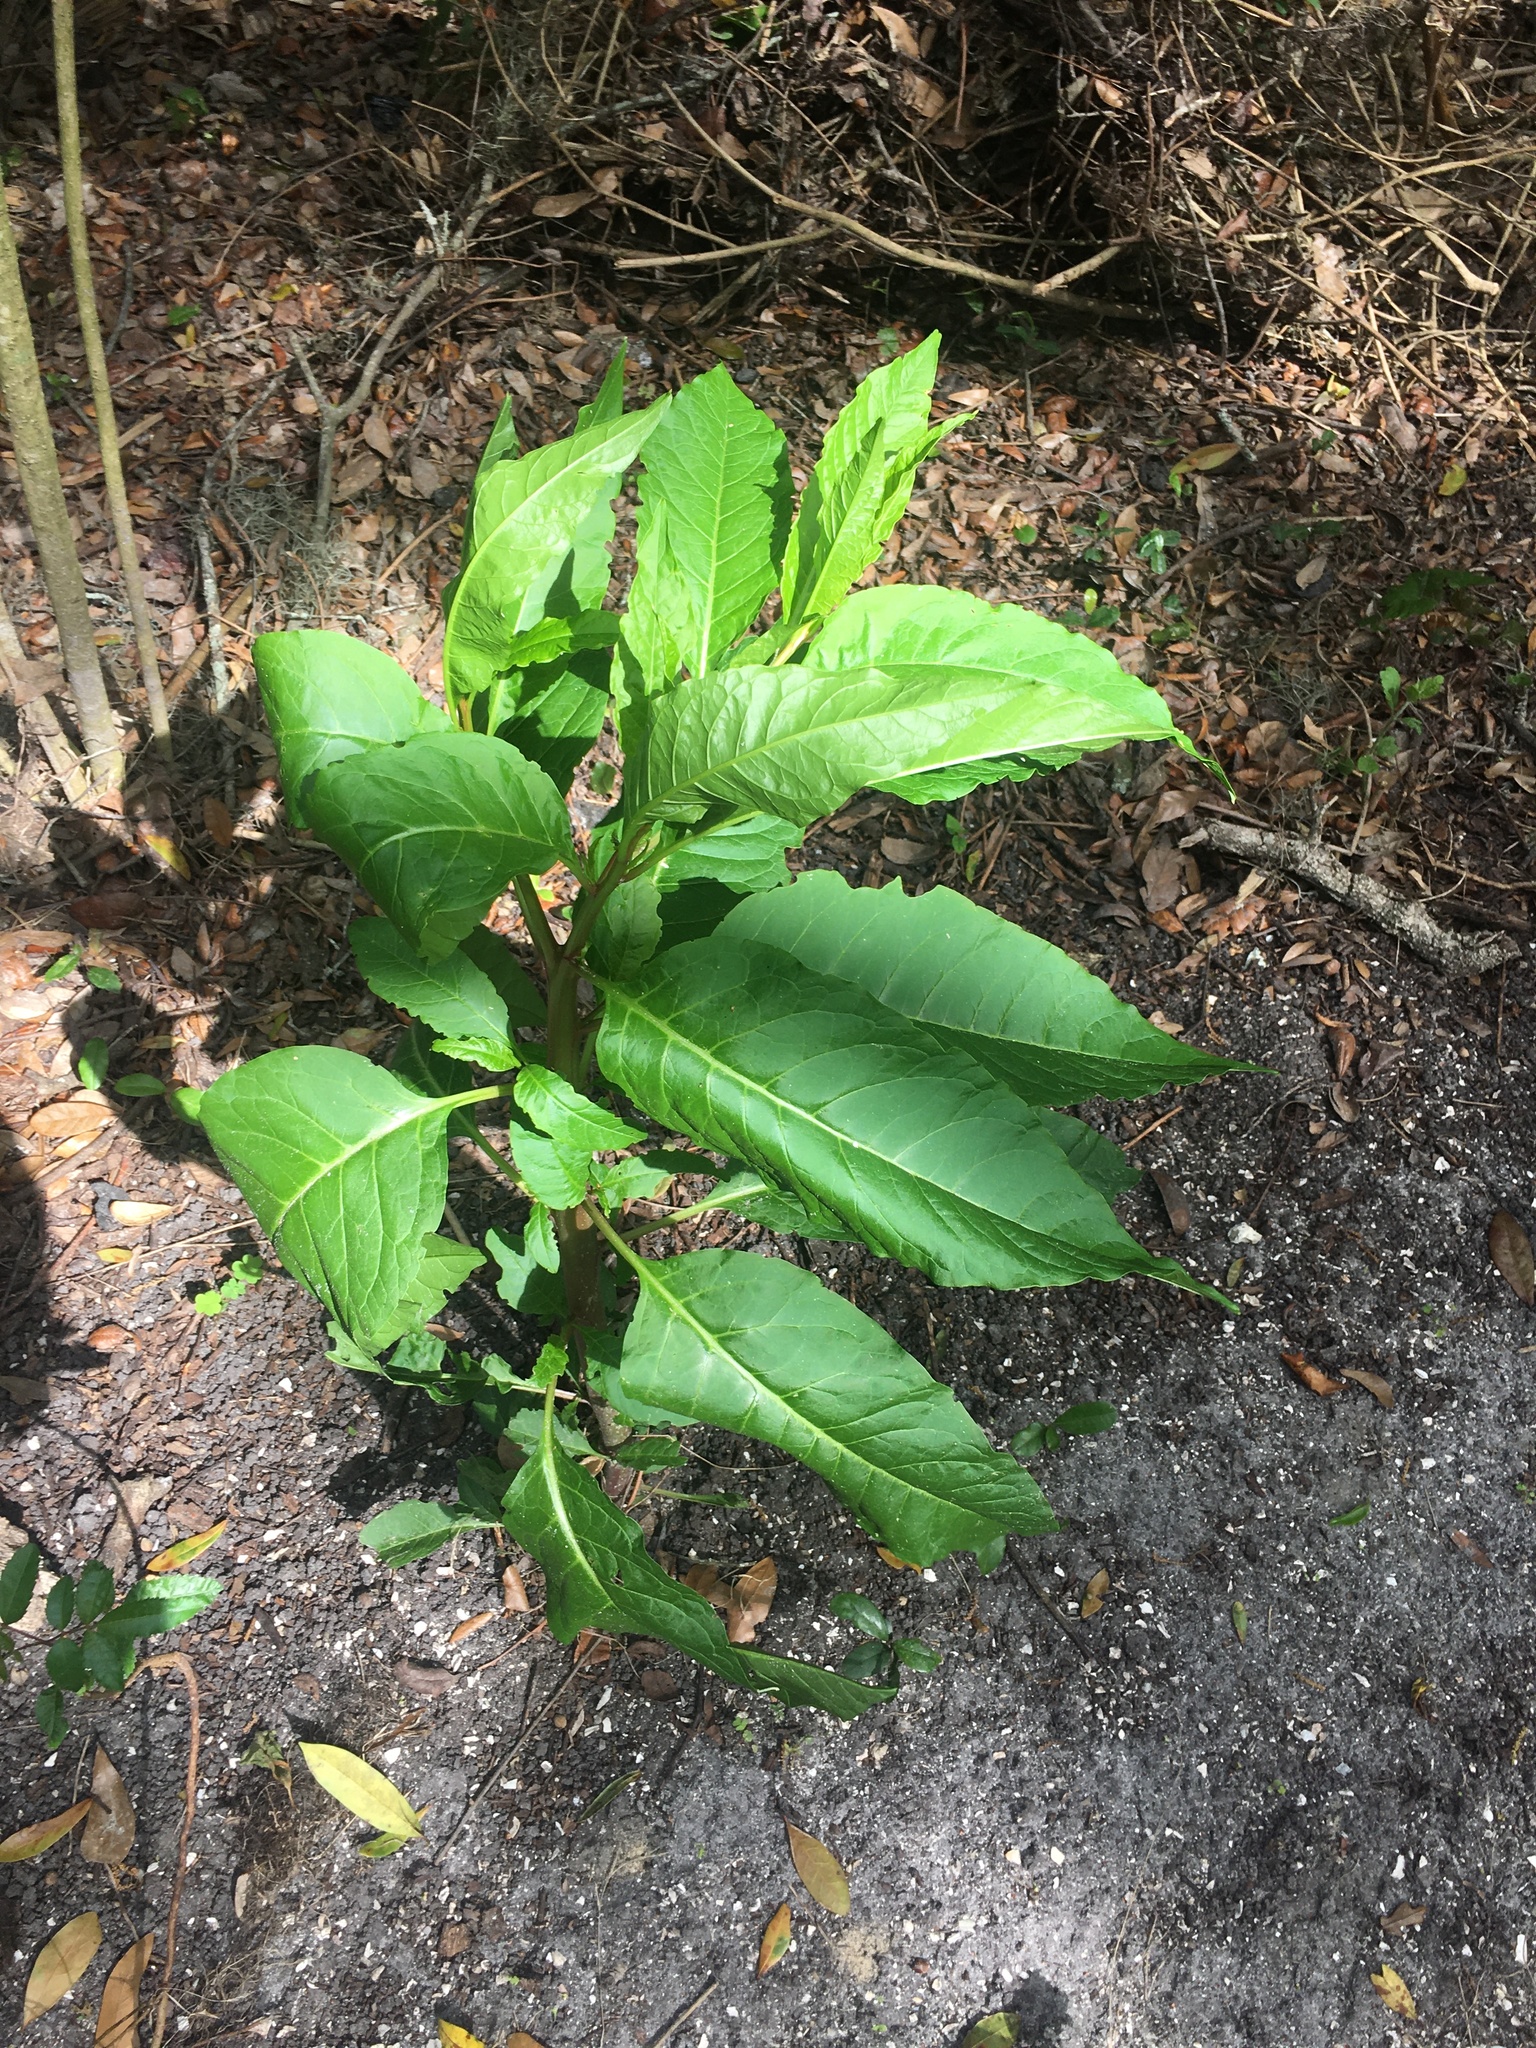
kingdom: Plantae
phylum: Tracheophyta
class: Magnoliopsida
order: Caryophyllales
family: Phytolaccaceae
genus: Phytolacca
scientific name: Phytolacca americana
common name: American pokeweed
